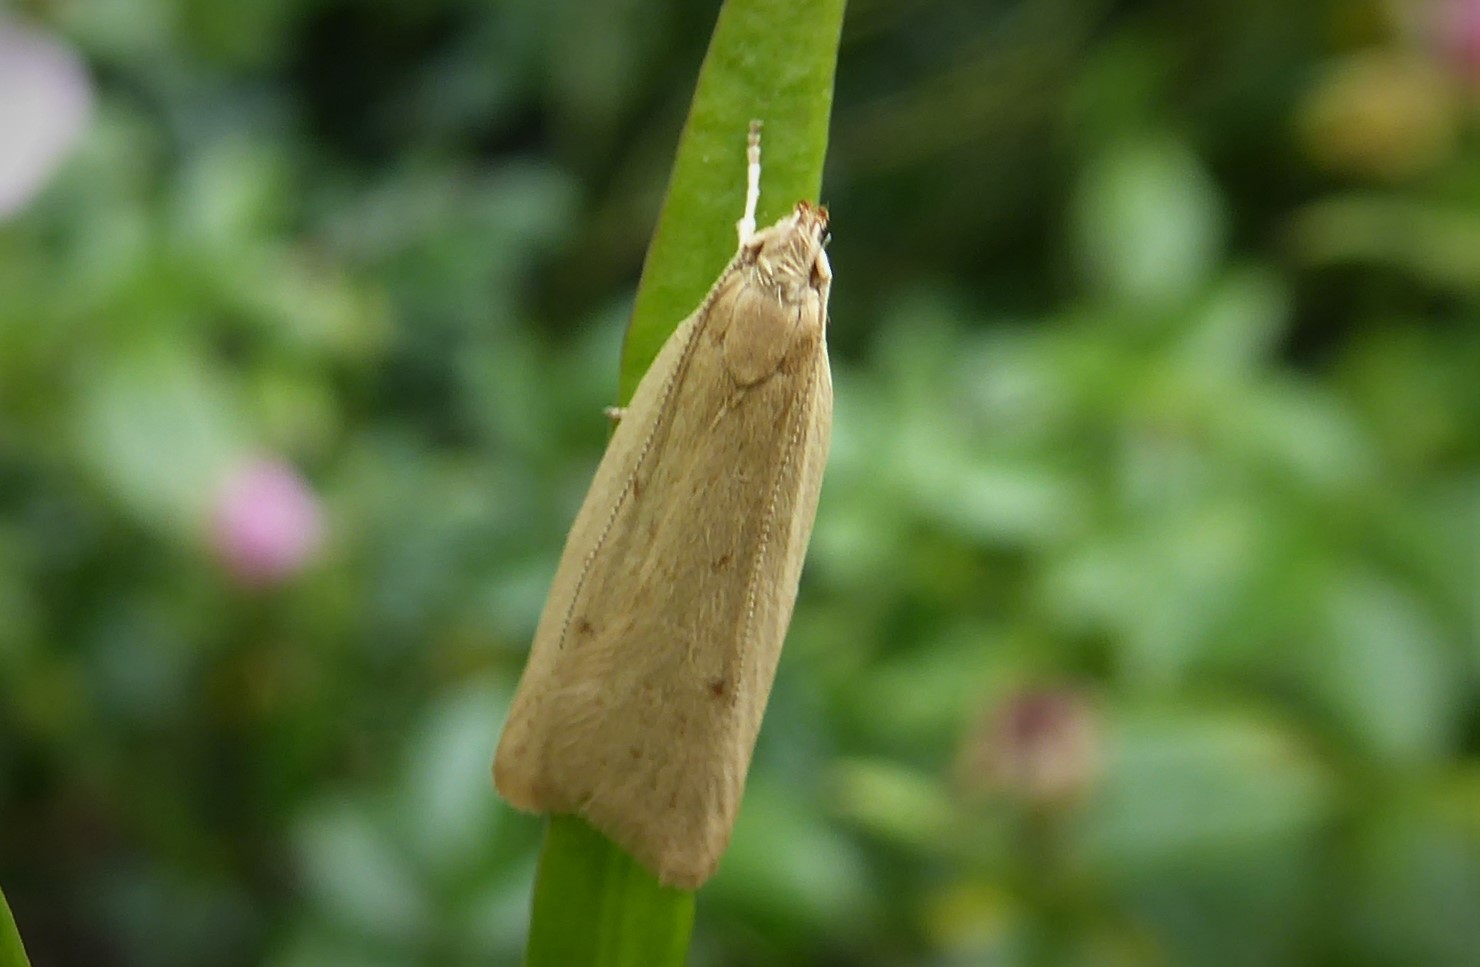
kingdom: Animalia
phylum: Arthropoda
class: Insecta
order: Lepidoptera
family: Oecophoridae
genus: Gymnobathra
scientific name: Gymnobathra sarcoxantha
